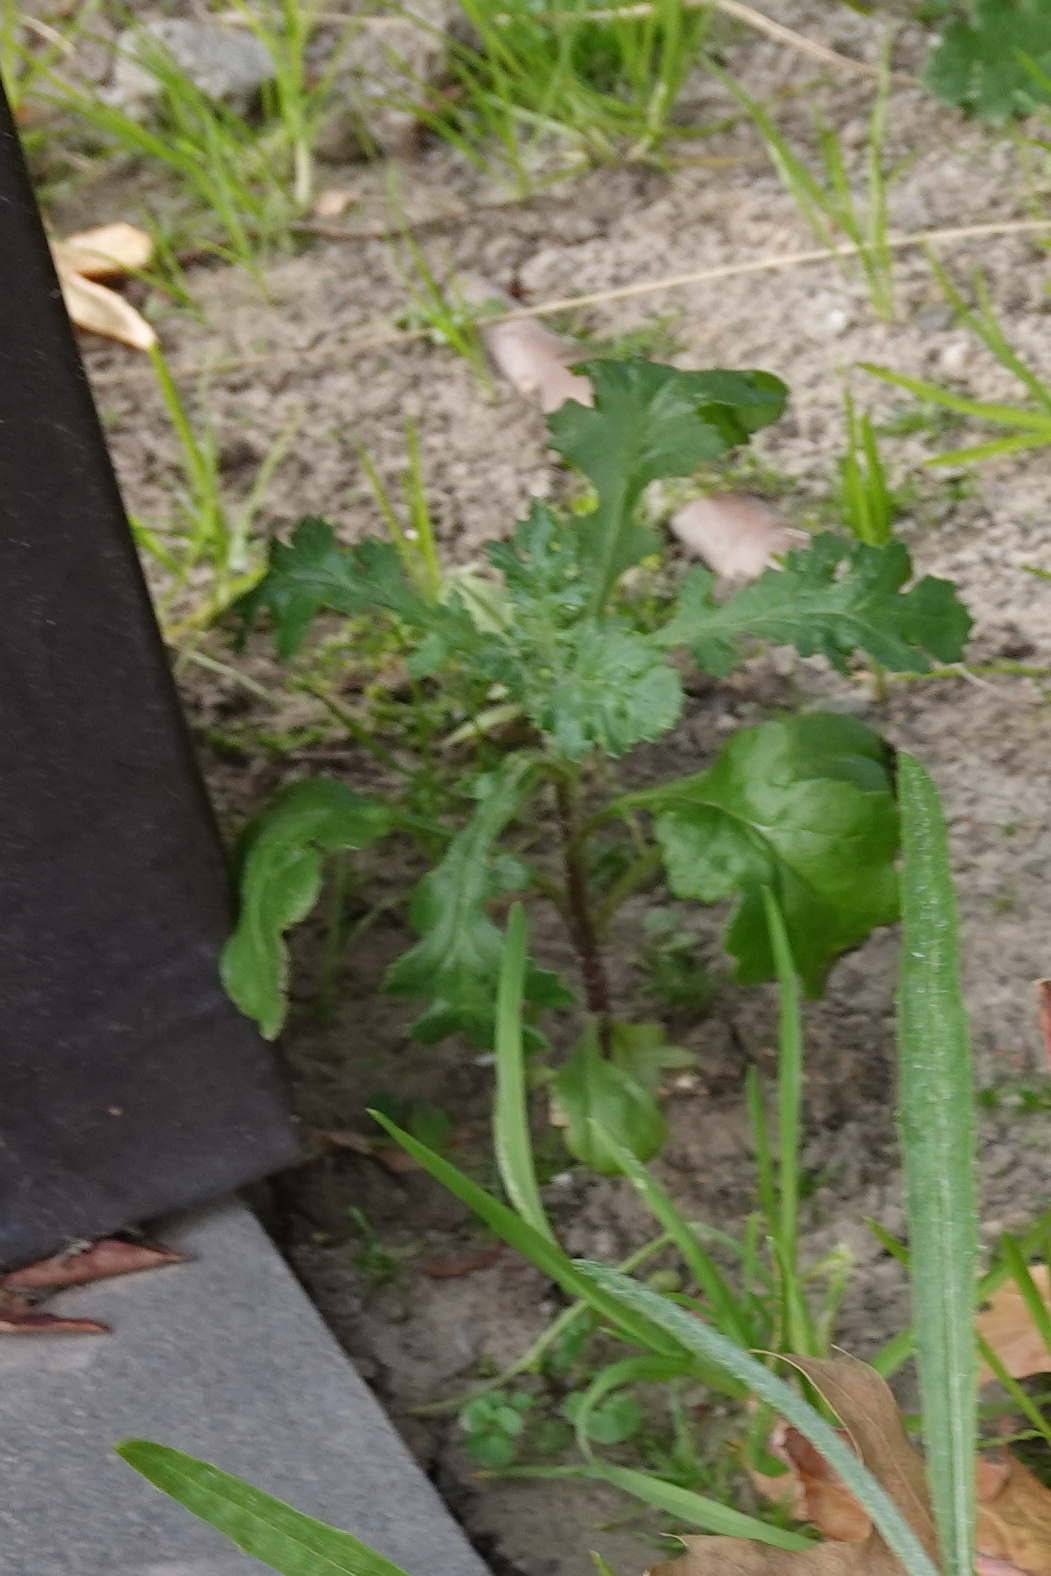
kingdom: Plantae
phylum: Tracheophyta
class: Magnoliopsida
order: Asterales
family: Asteraceae
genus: Senecio
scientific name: Senecio vulgaris
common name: Old-man-in-the-spring
